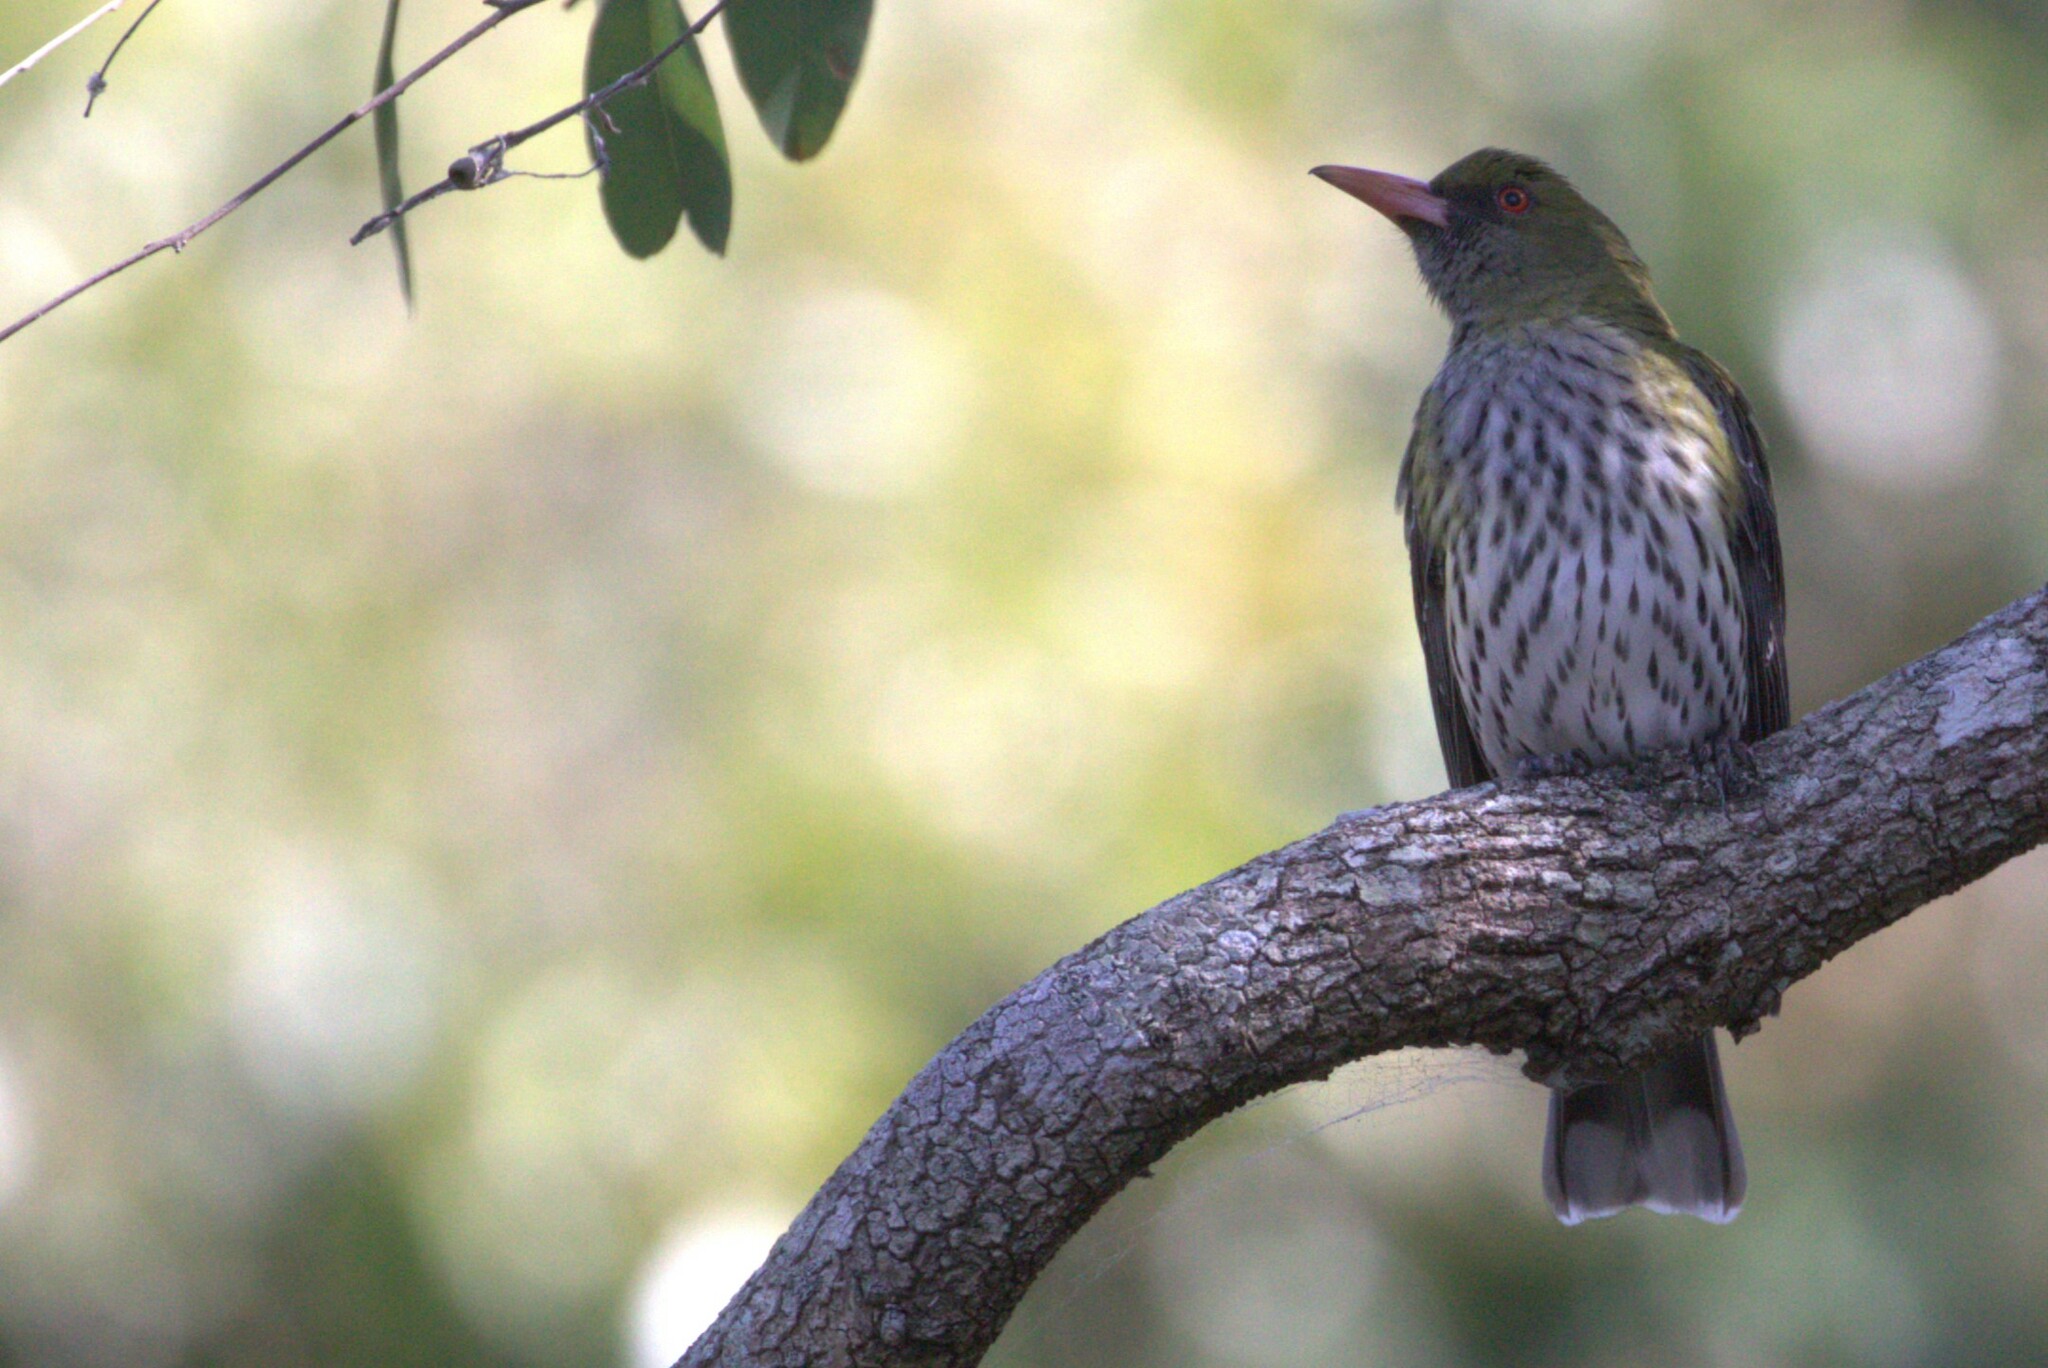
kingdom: Animalia
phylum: Chordata
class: Aves
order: Passeriformes
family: Oriolidae
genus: Oriolus
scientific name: Oriolus sagittatus
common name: Olive-backed oriole
